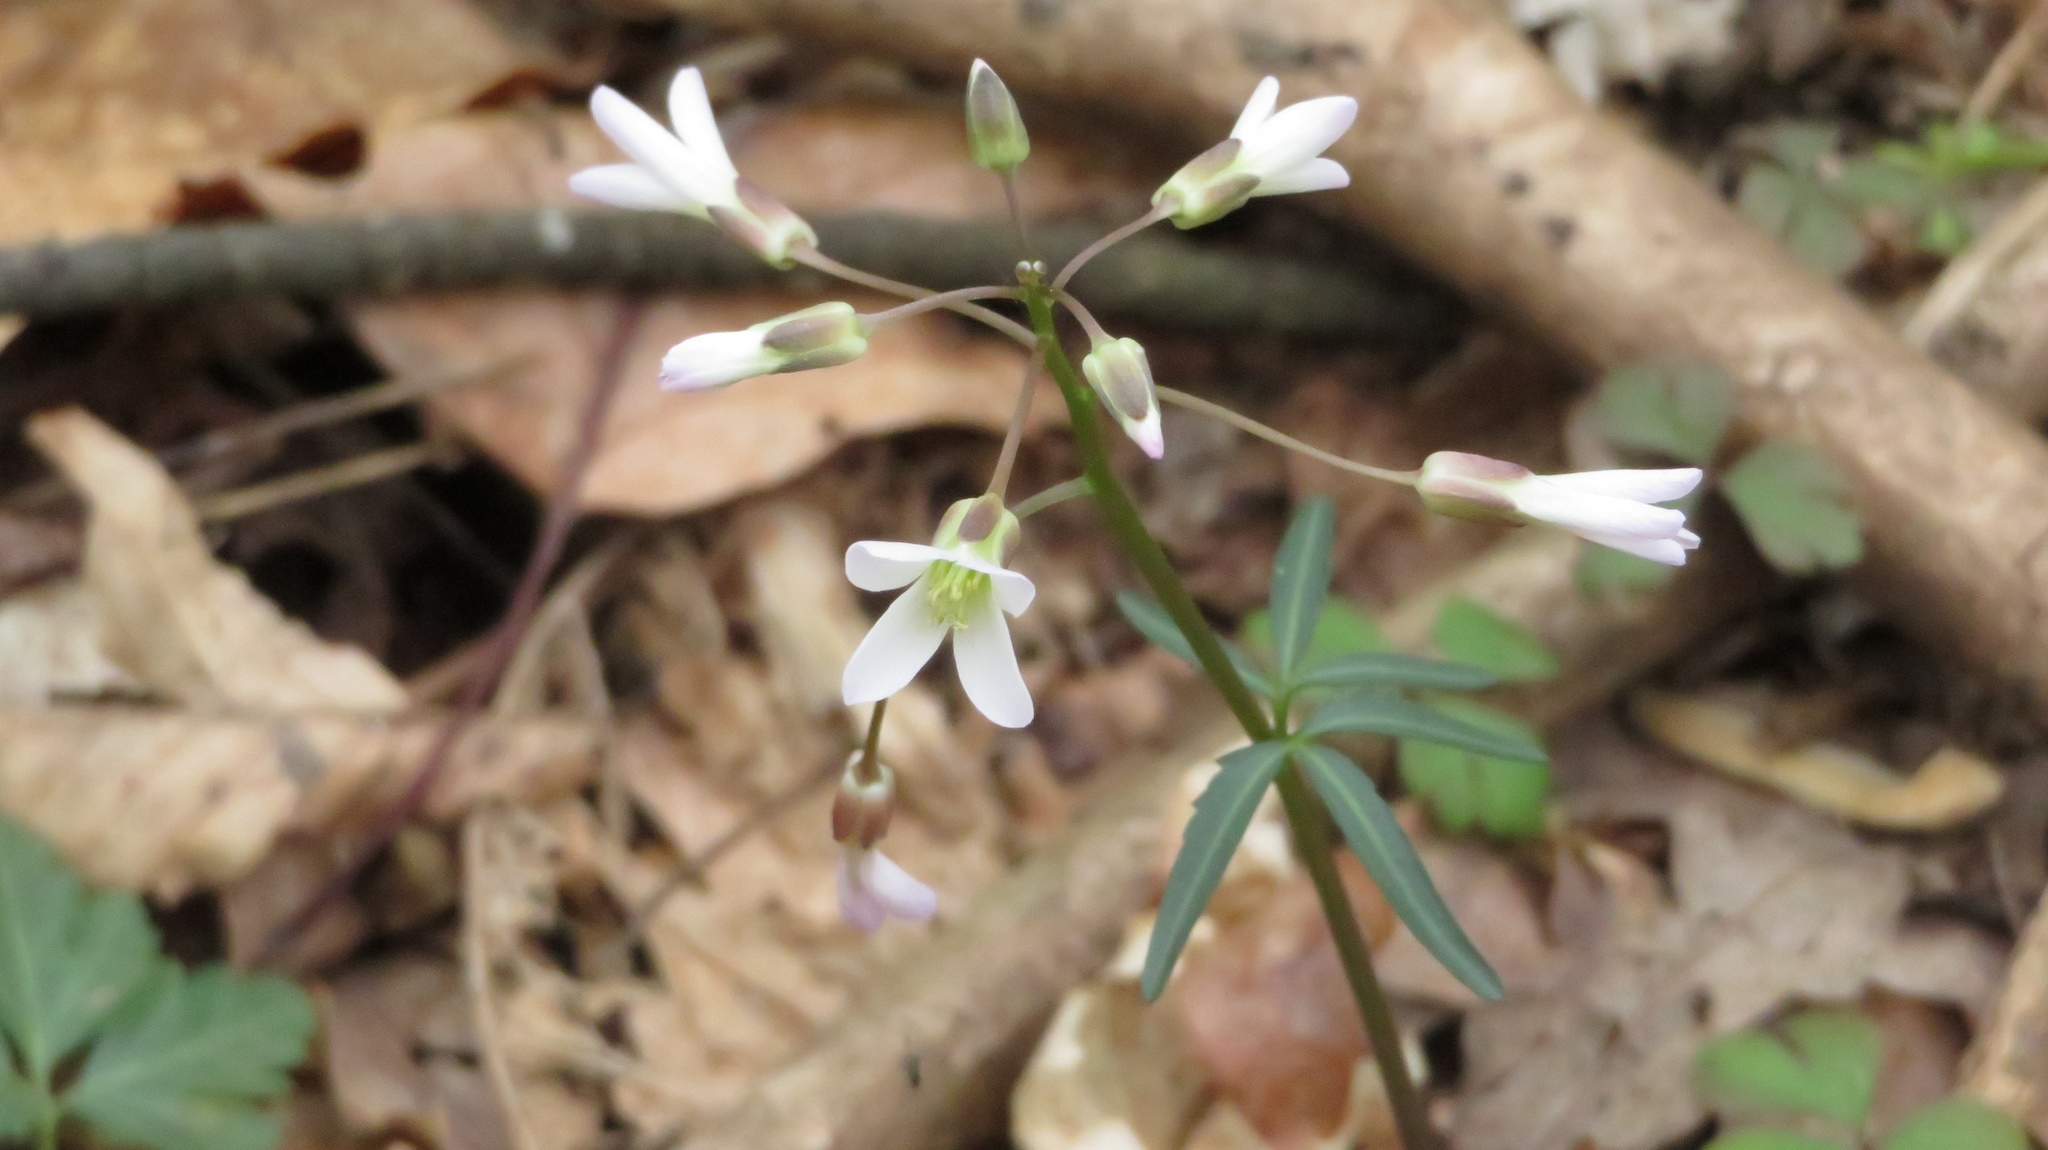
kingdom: Plantae
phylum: Tracheophyta
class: Magnoliopsida
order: Brassicales
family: Brassicaceae
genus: Cardamine
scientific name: Cardamine concatenata
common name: Cut-leaf toothcup
